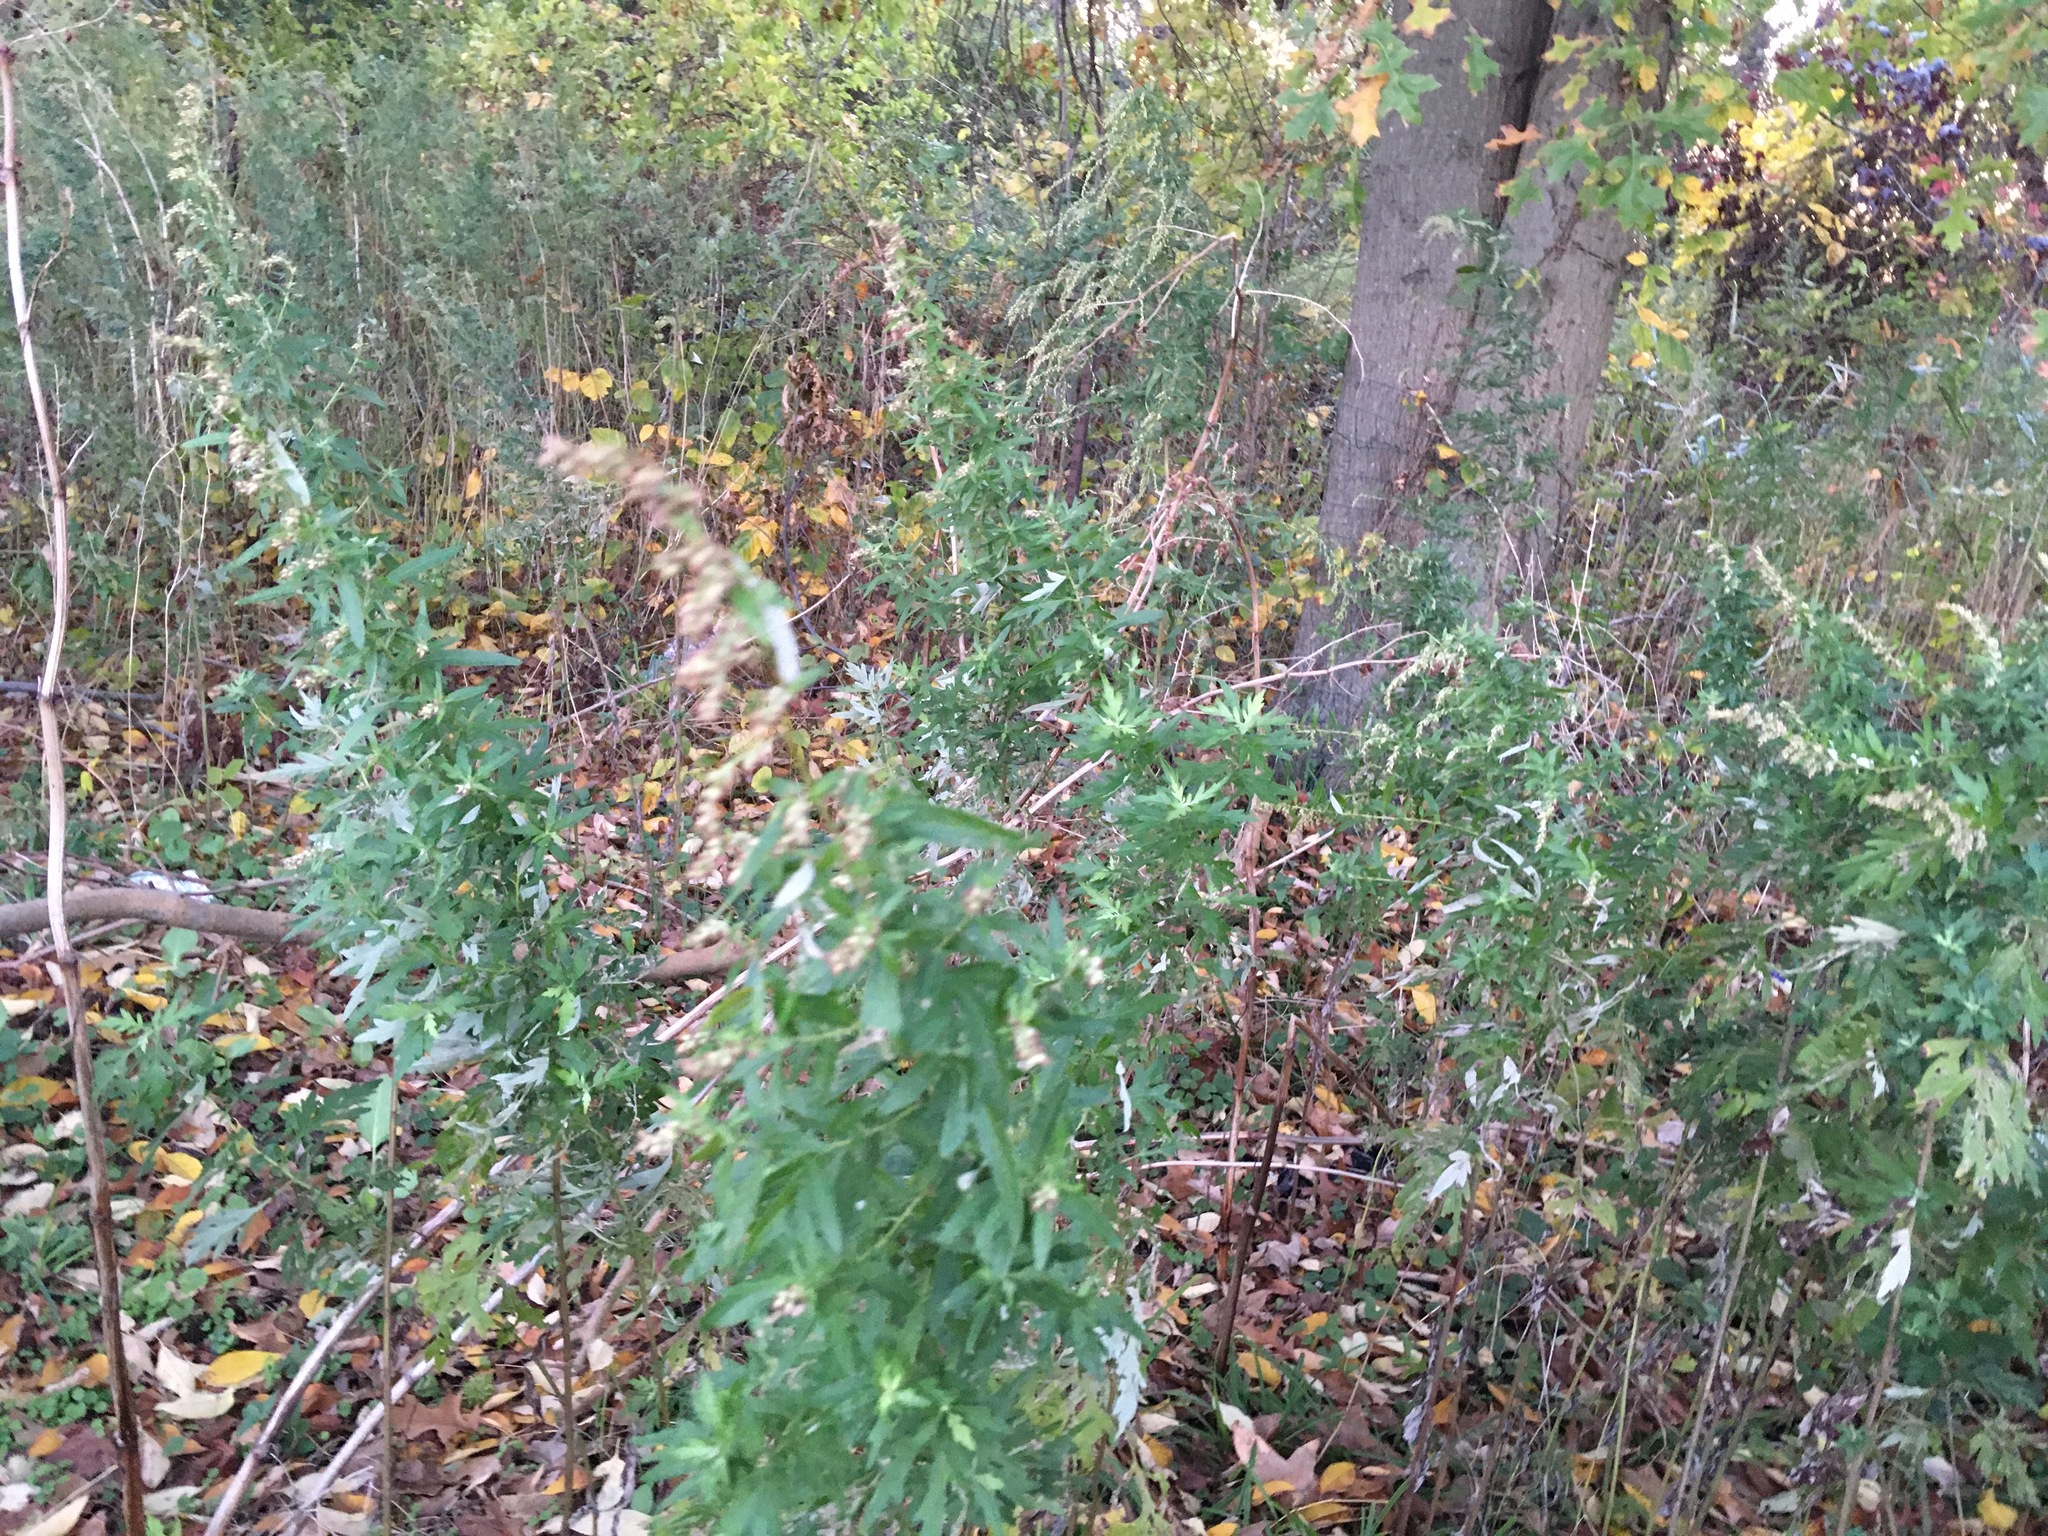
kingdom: Plantae
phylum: Tracheophyta
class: Magnoliopsida
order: Asterales
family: Asteraceae
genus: Artemisia
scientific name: Artemisia vulgaris
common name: Mugwort
